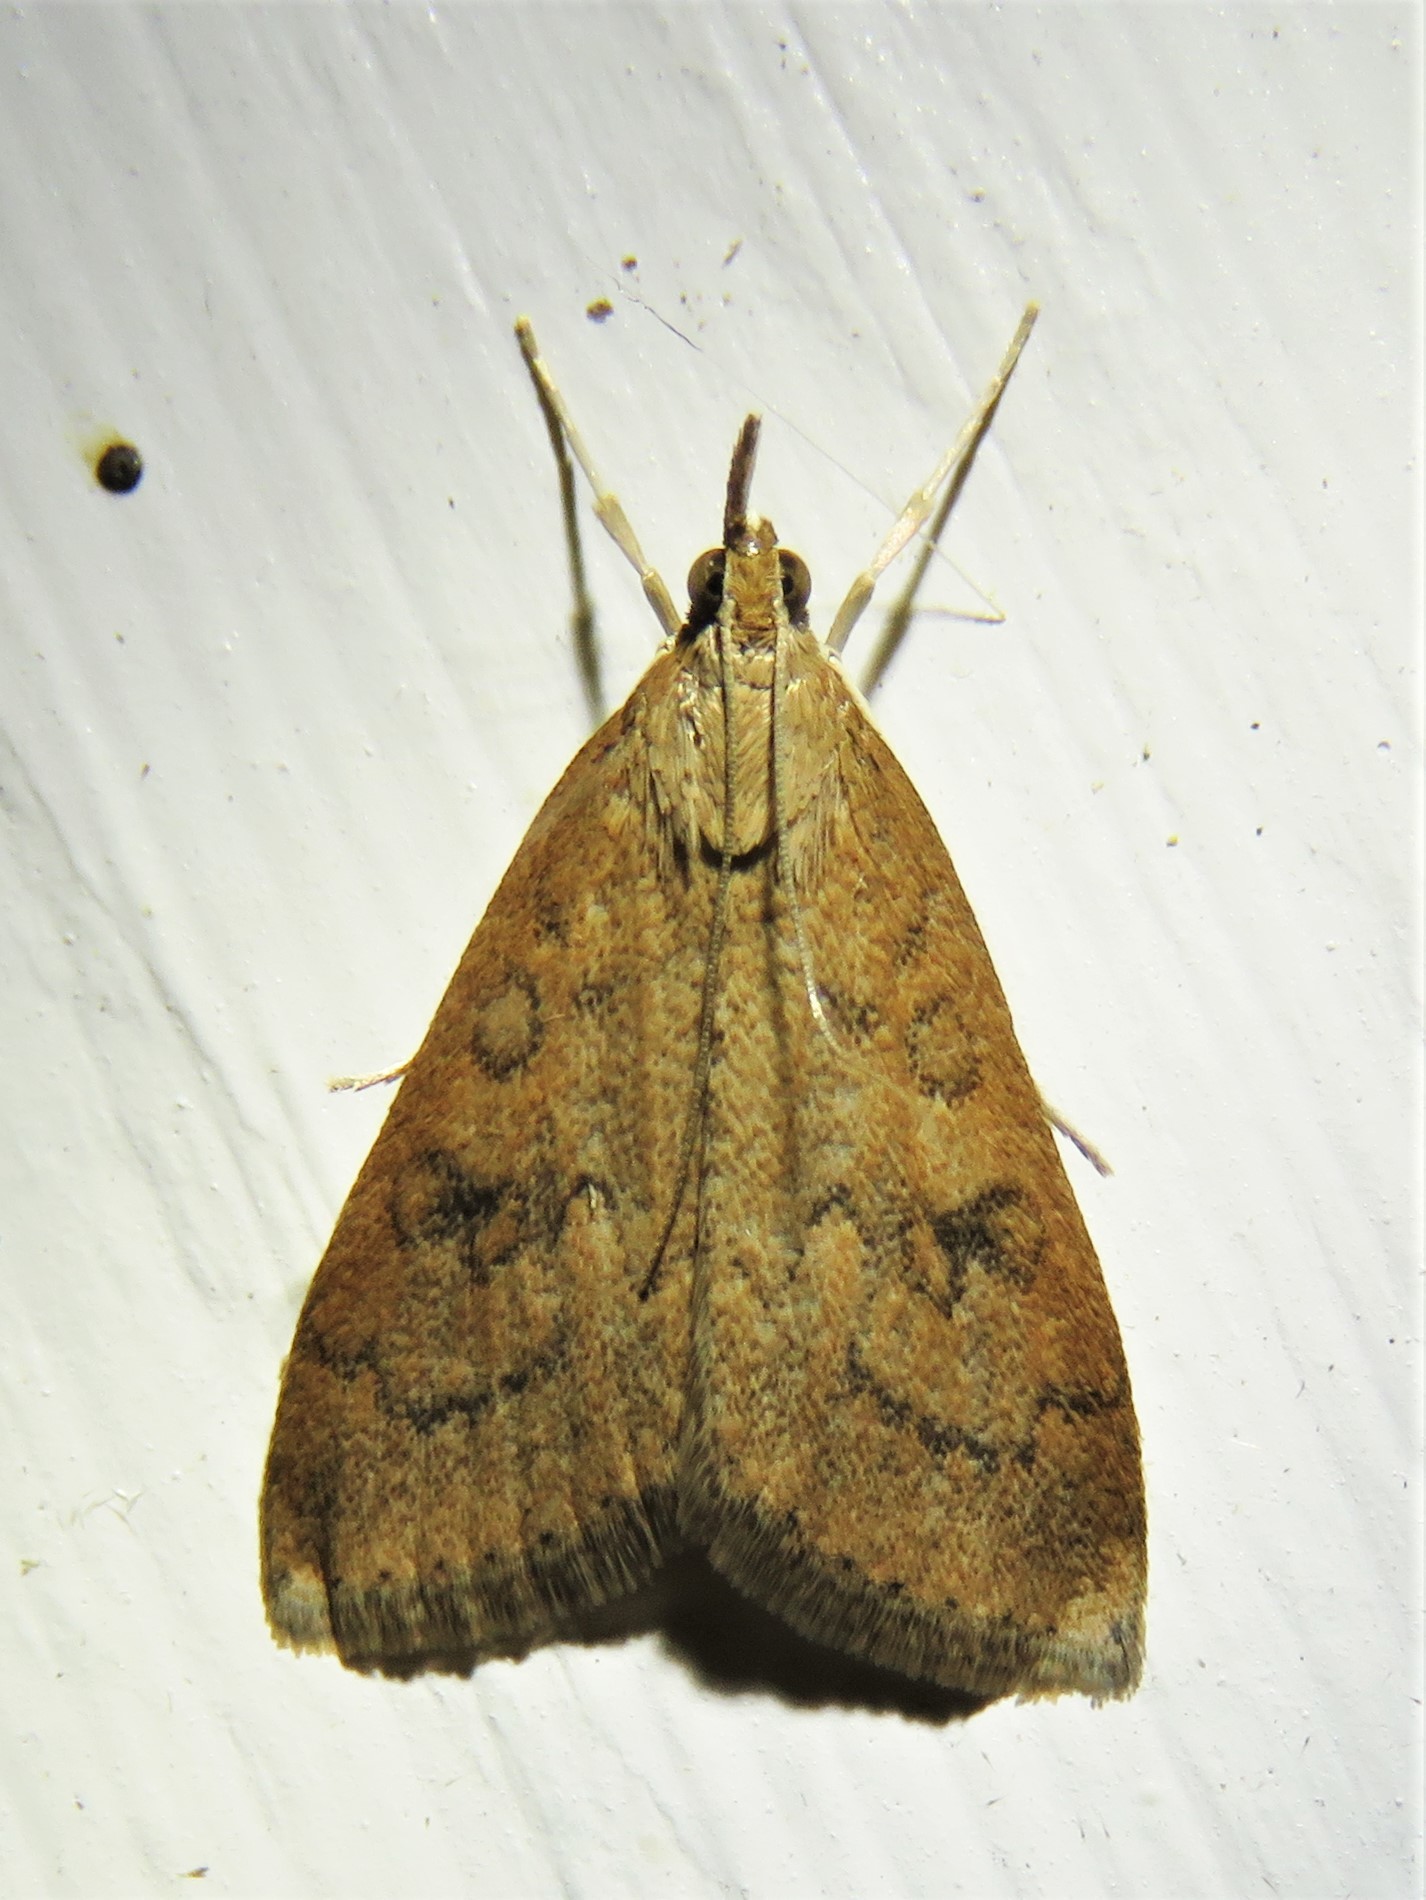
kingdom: Animalia
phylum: Arthropoda
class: Insecta
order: Lepidoptera
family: Crambidae
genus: Udea
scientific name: Udea rubigalis
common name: Celery leaftier moth
